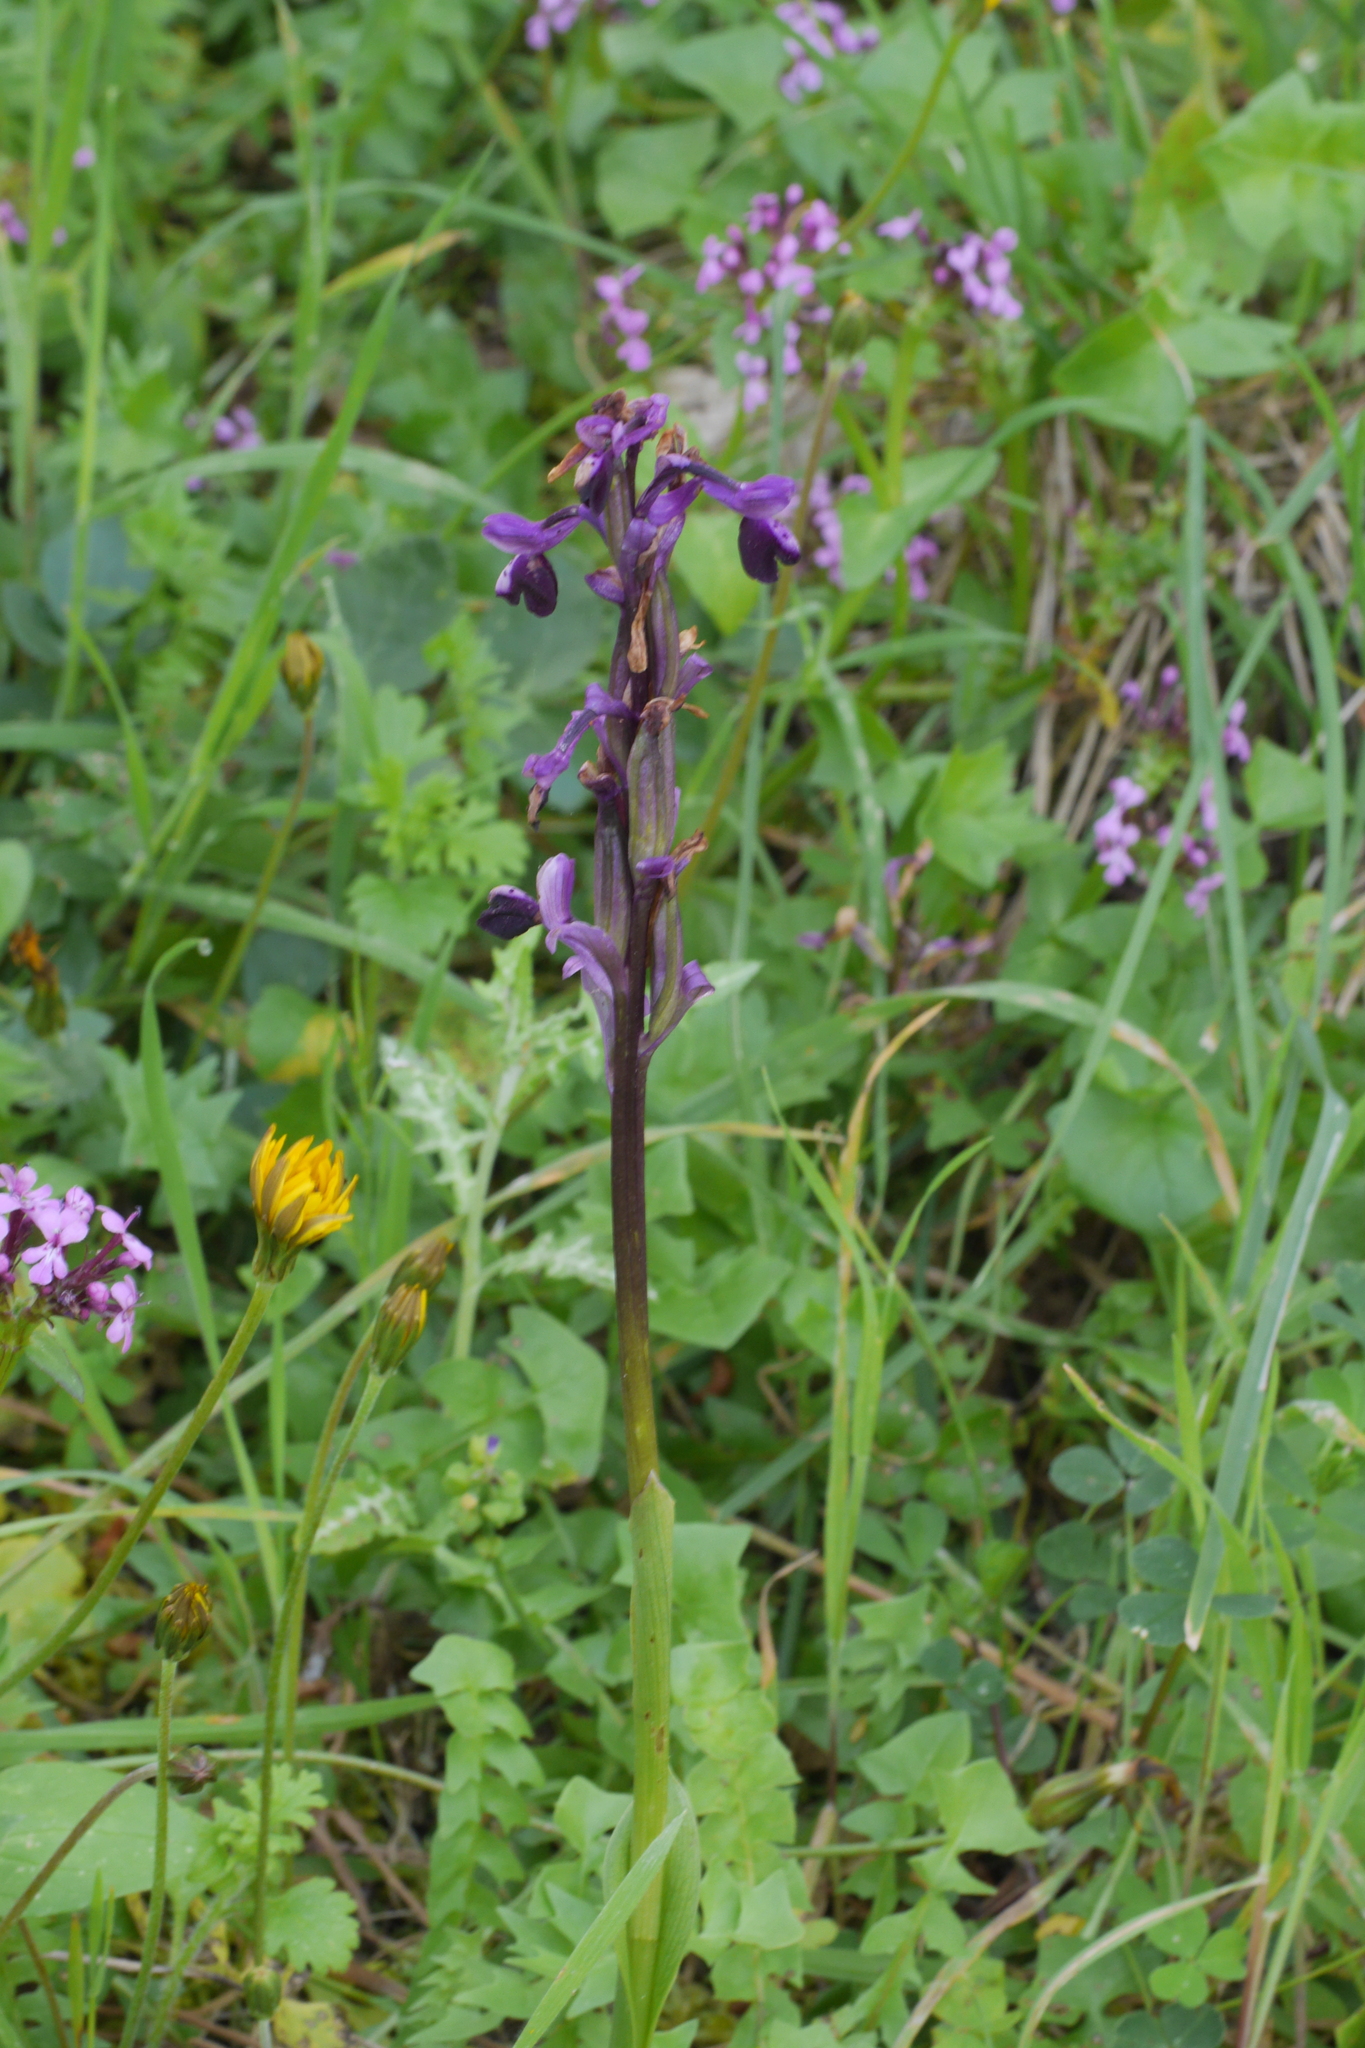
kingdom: Plantae
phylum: Tracheophyta
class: Liliopsida
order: Asparagales
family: Orchidaceae
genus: Anacamptis
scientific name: Anacamptis morio
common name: Green-winged orchid
